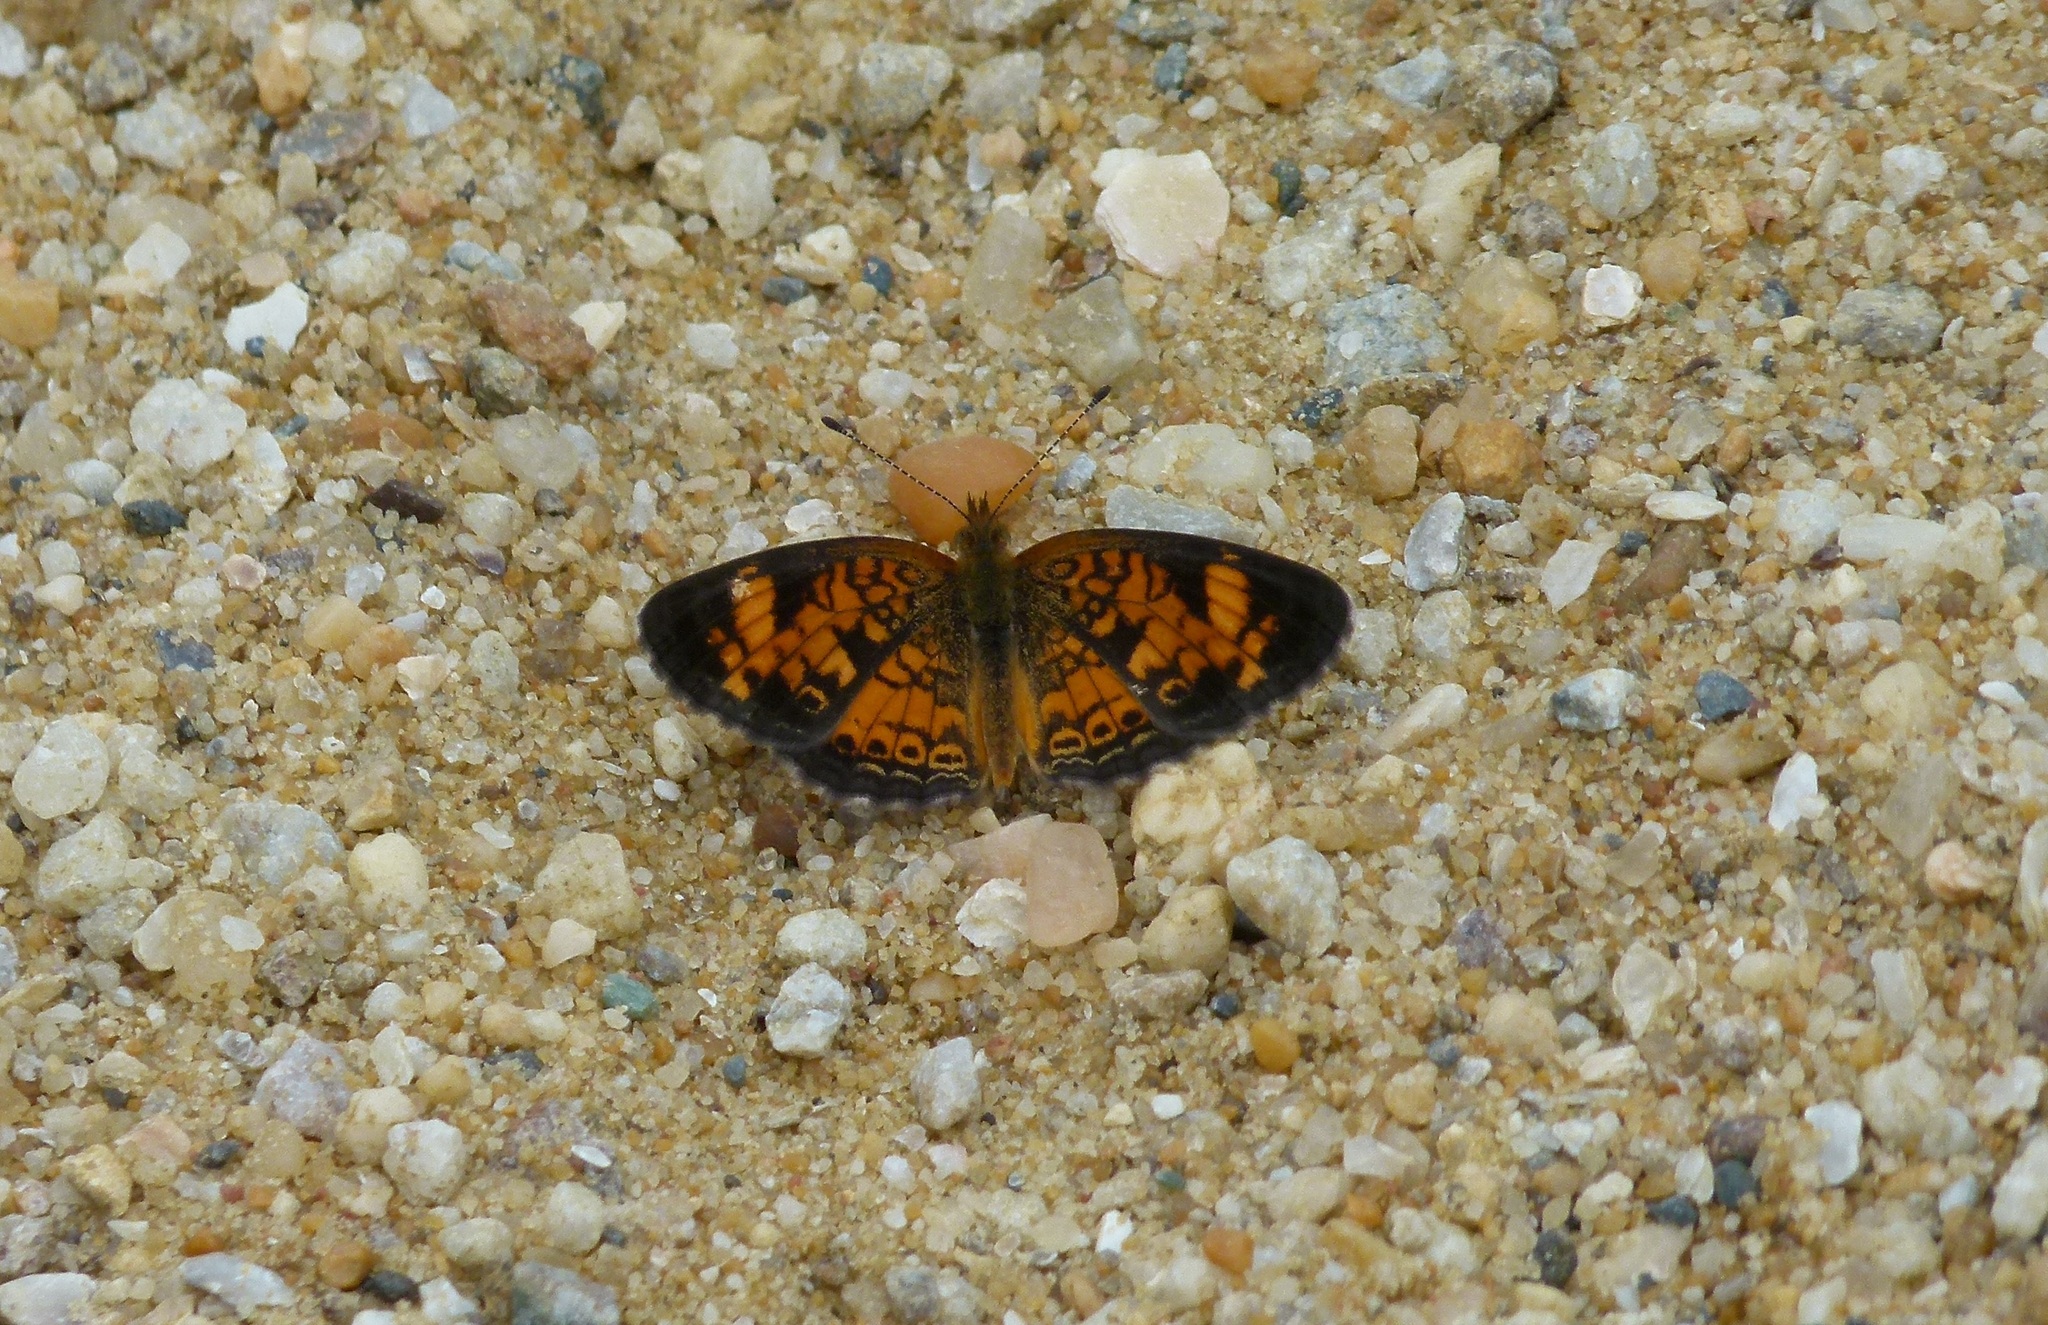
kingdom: Animalia
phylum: Arthropoda
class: Insecta
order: Lepidoptera
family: Nymphalidae
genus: Phyciodes
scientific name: Phyciodes tharos
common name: Pearl crescent
